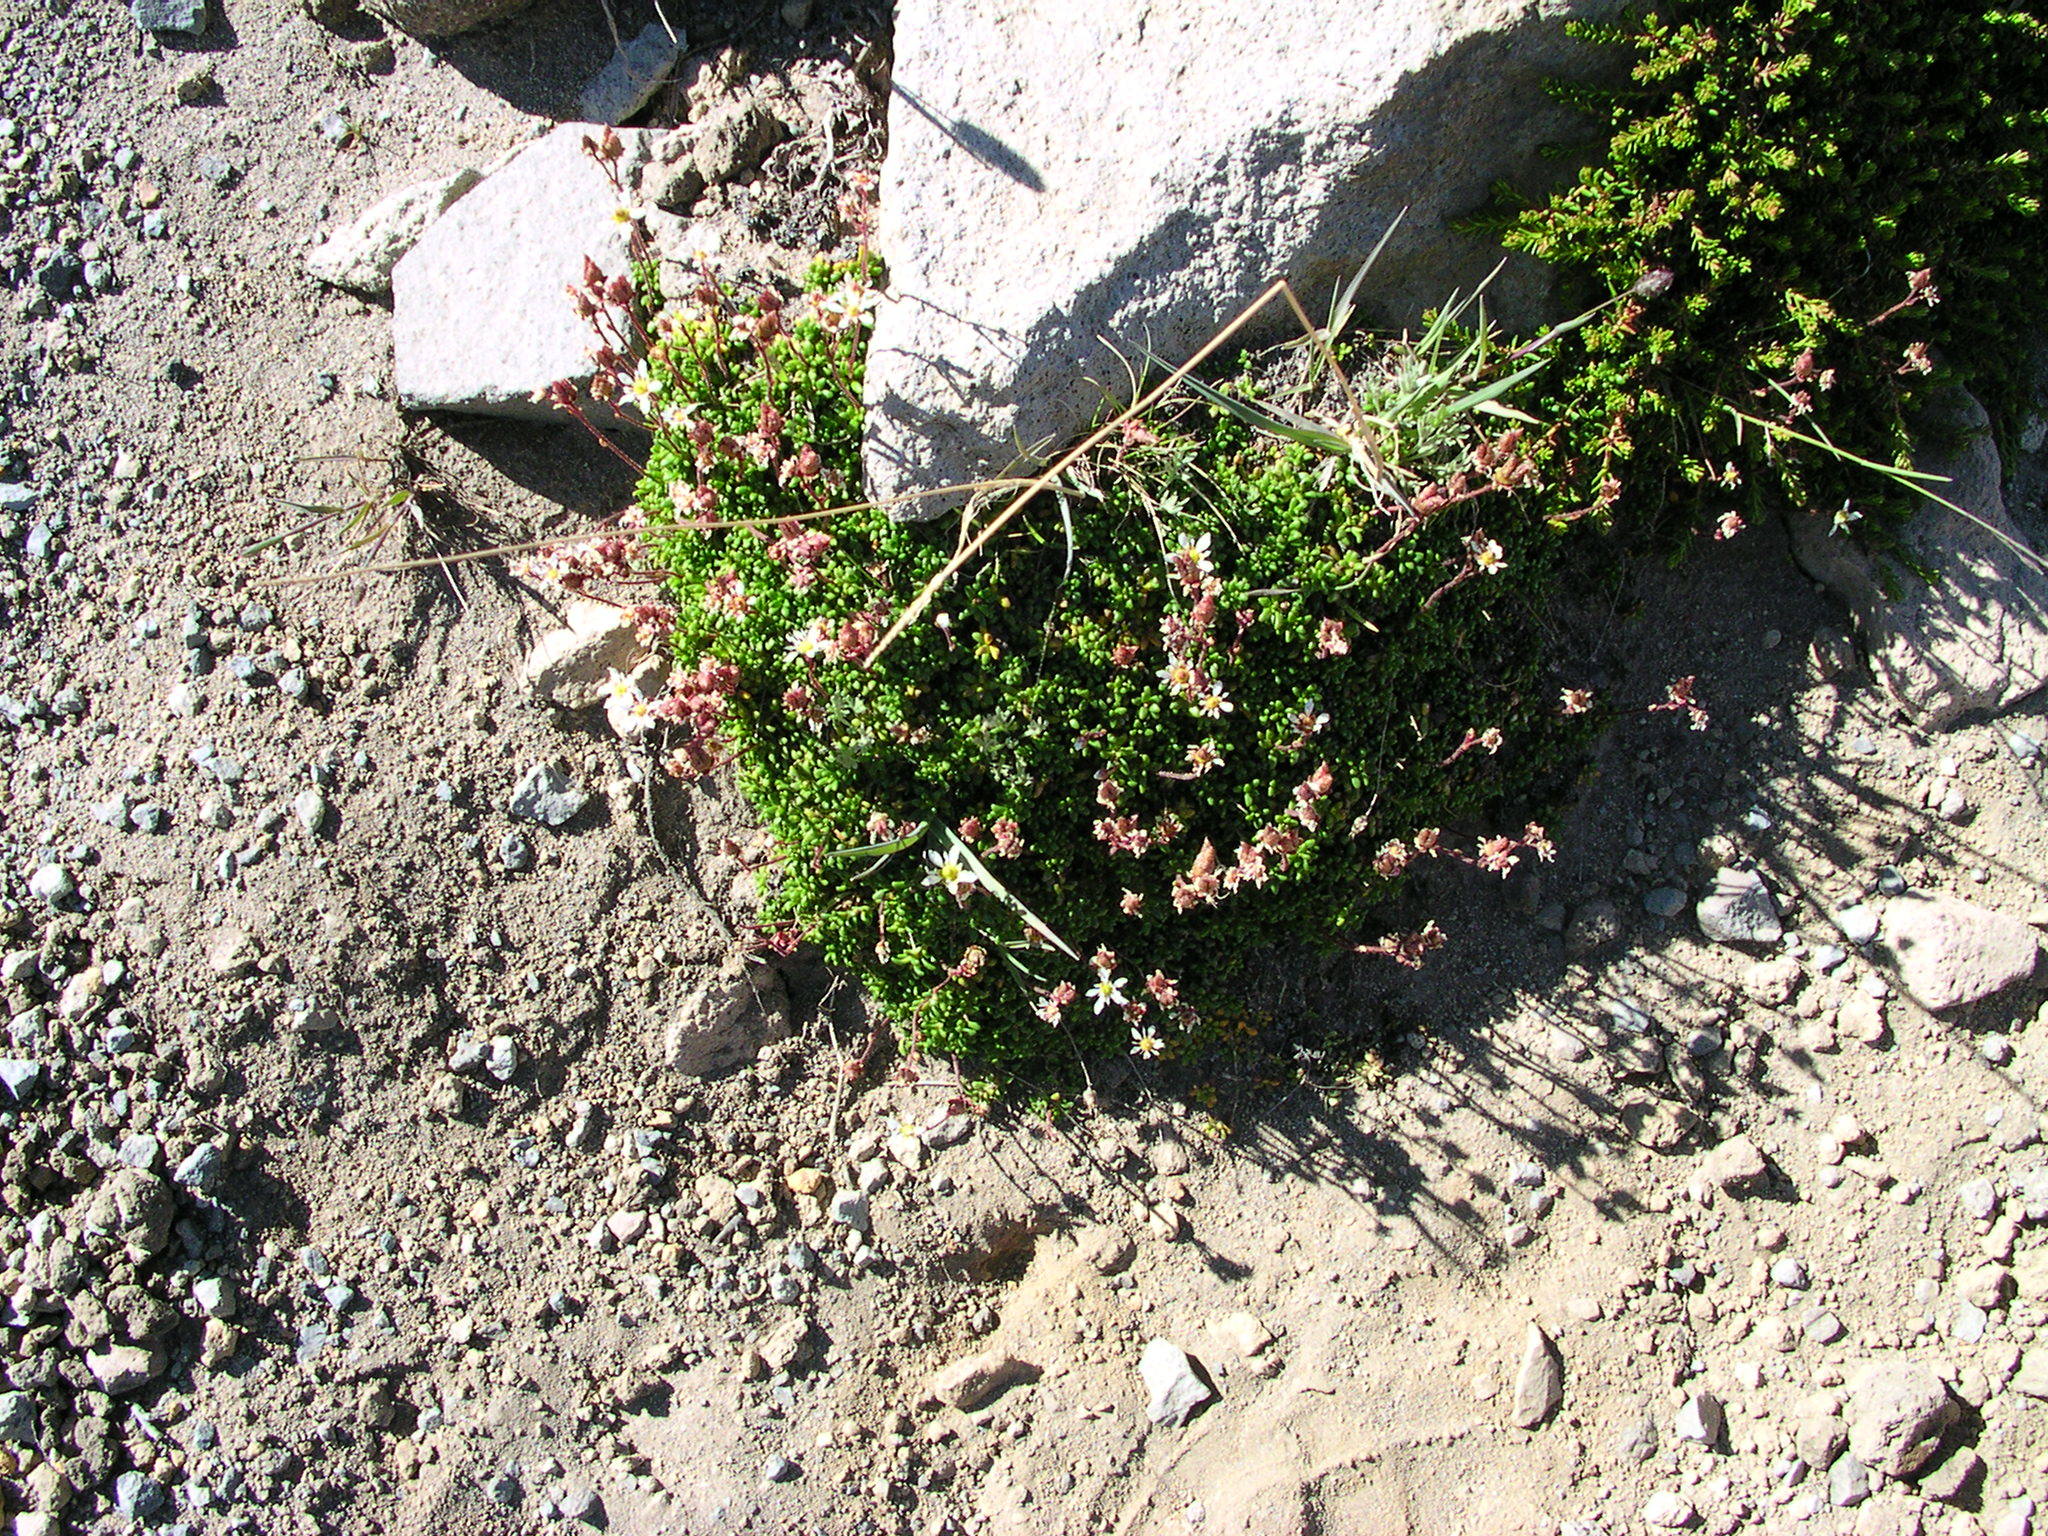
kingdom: Plantae
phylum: Tracheophyta
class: Magnoliopsida
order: Saxifragales
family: Saxifragaceae
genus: Micranthes
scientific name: Micranthes tolmiei
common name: Tolmie's saxifrage
